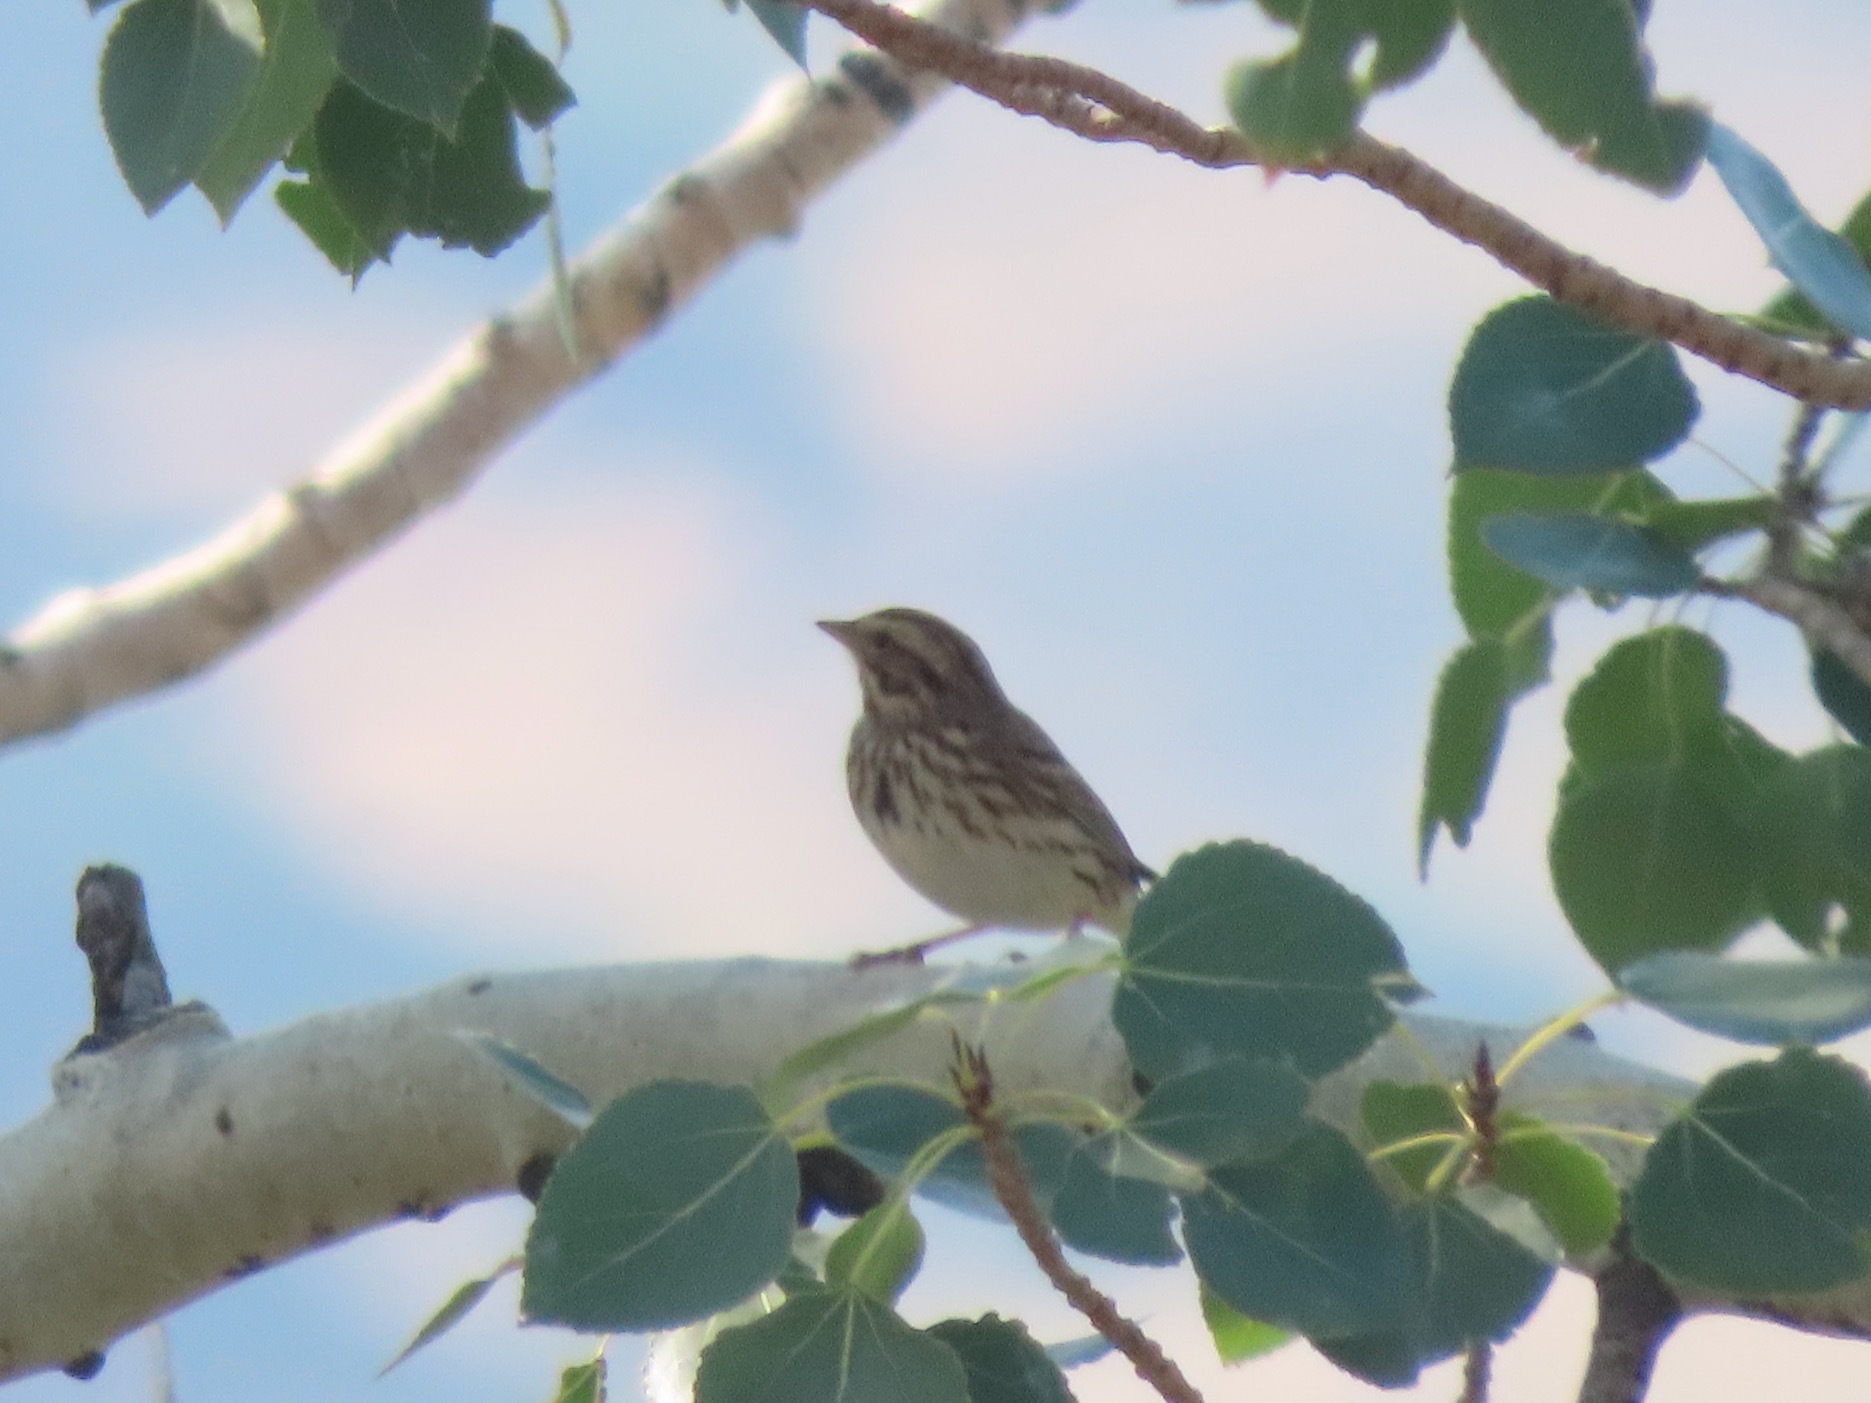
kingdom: Animalia
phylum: Chordata
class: Aves
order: Passeriformes
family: Passerellidae
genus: Passerculus
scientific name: Passerculus sandwichensis
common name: Savannah sparrow
